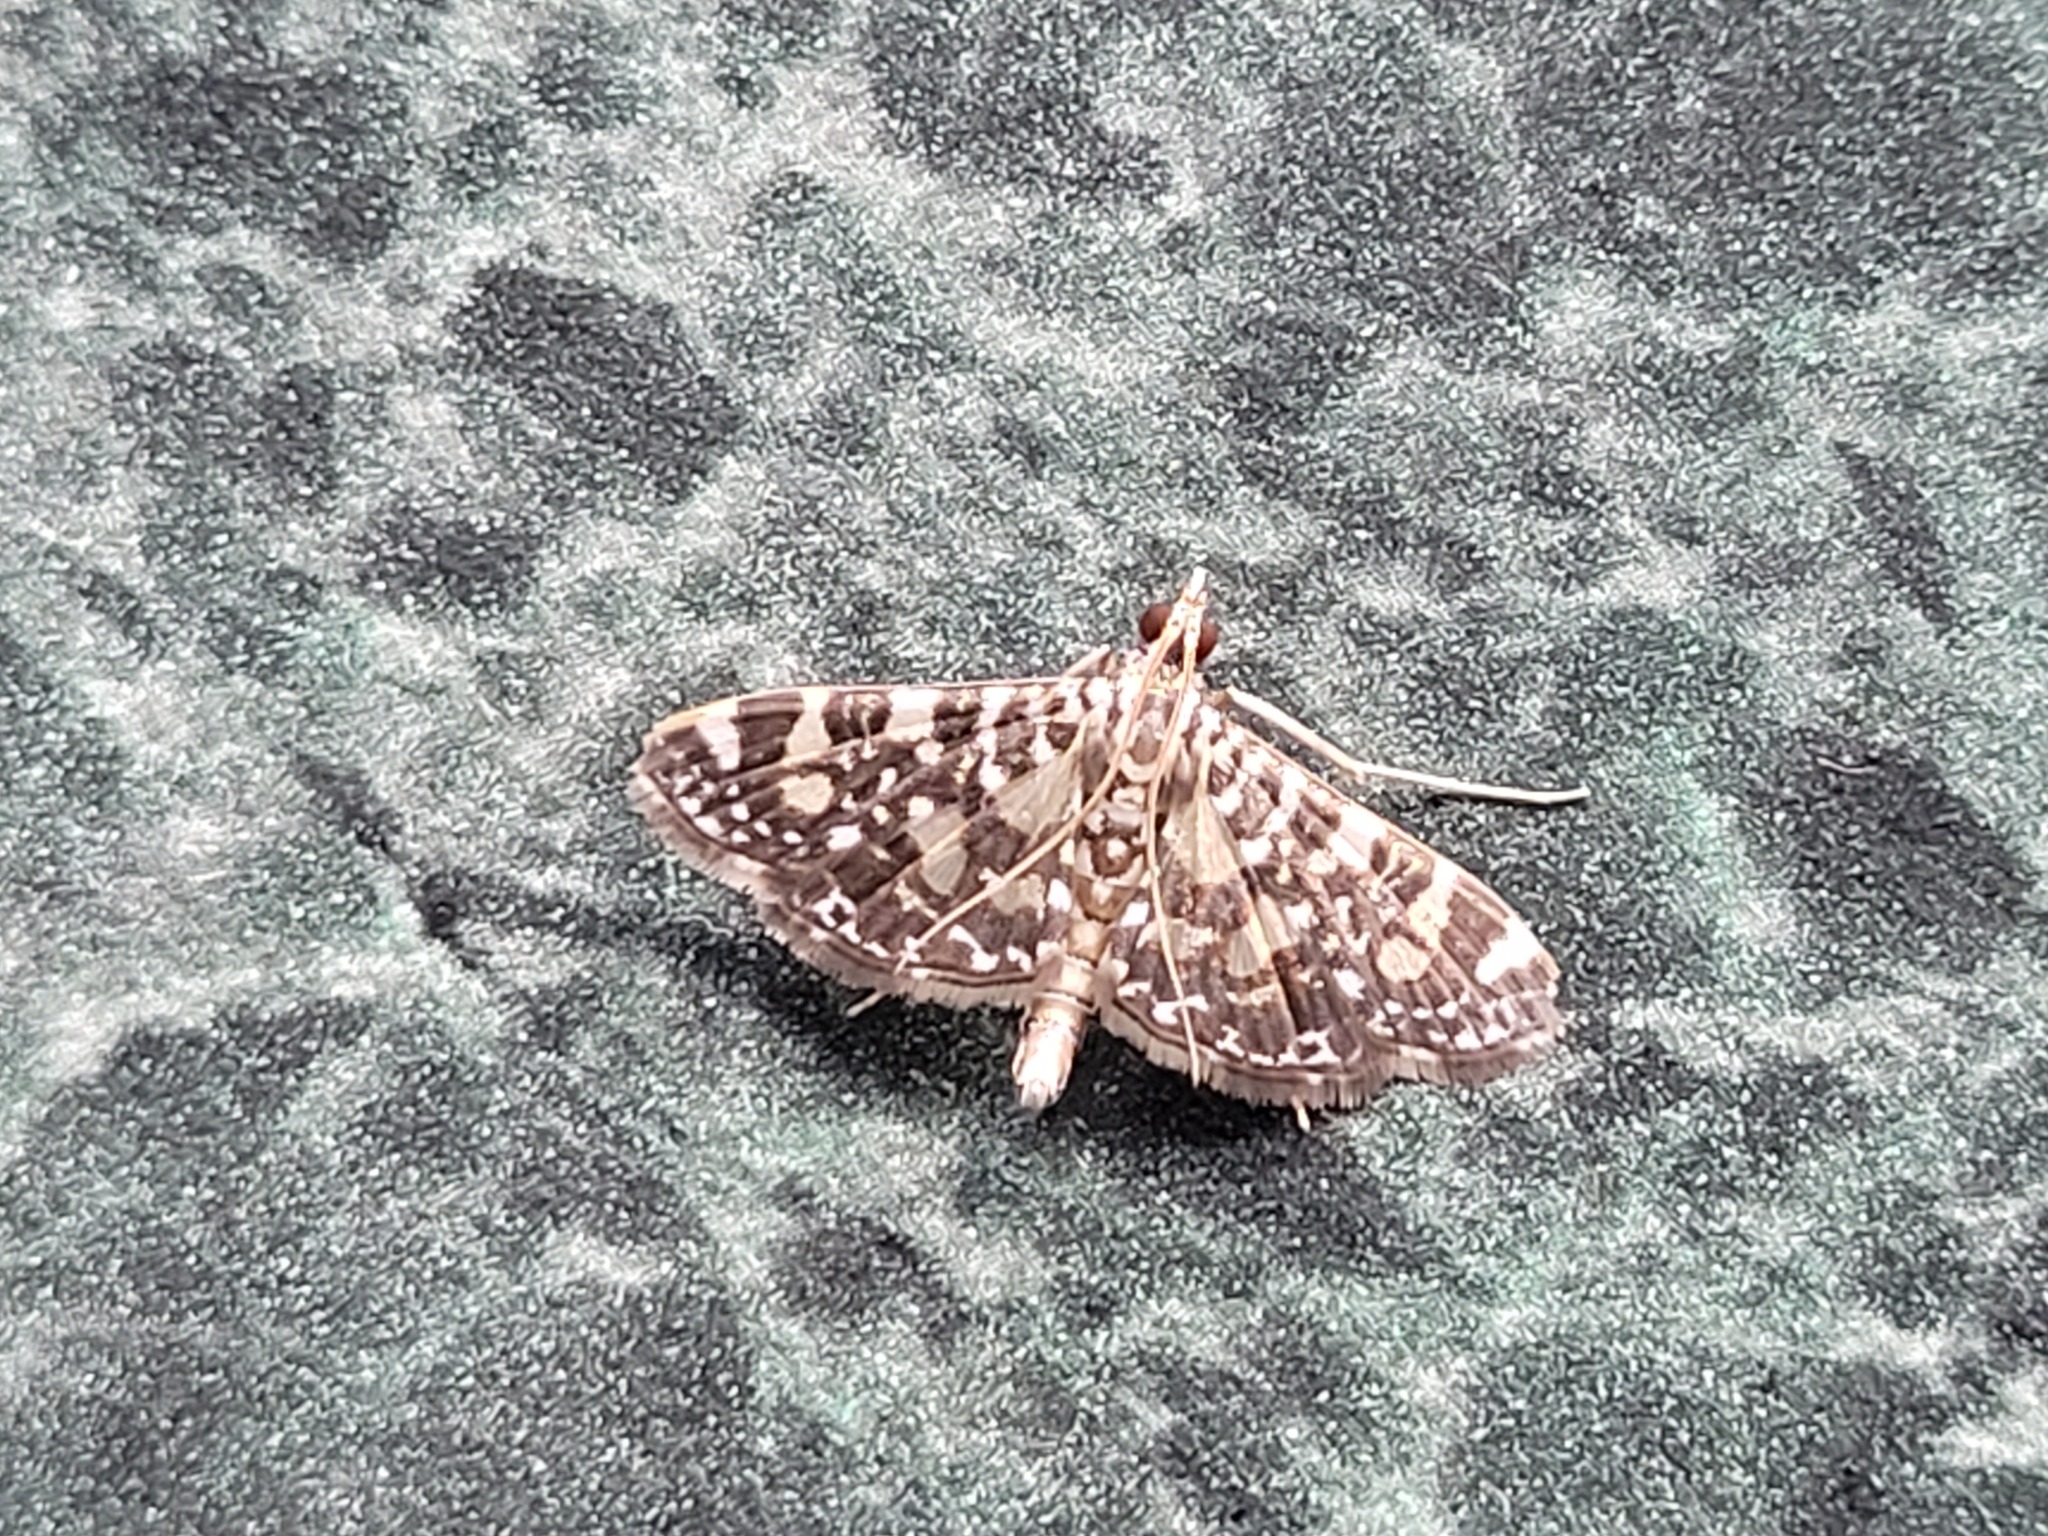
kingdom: Animalia
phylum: Arthropoda
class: Insecta
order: Lepidoptera
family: Crambidae
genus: Glyphodes
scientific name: Glyphodes onychinalis
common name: Swan plant moth
